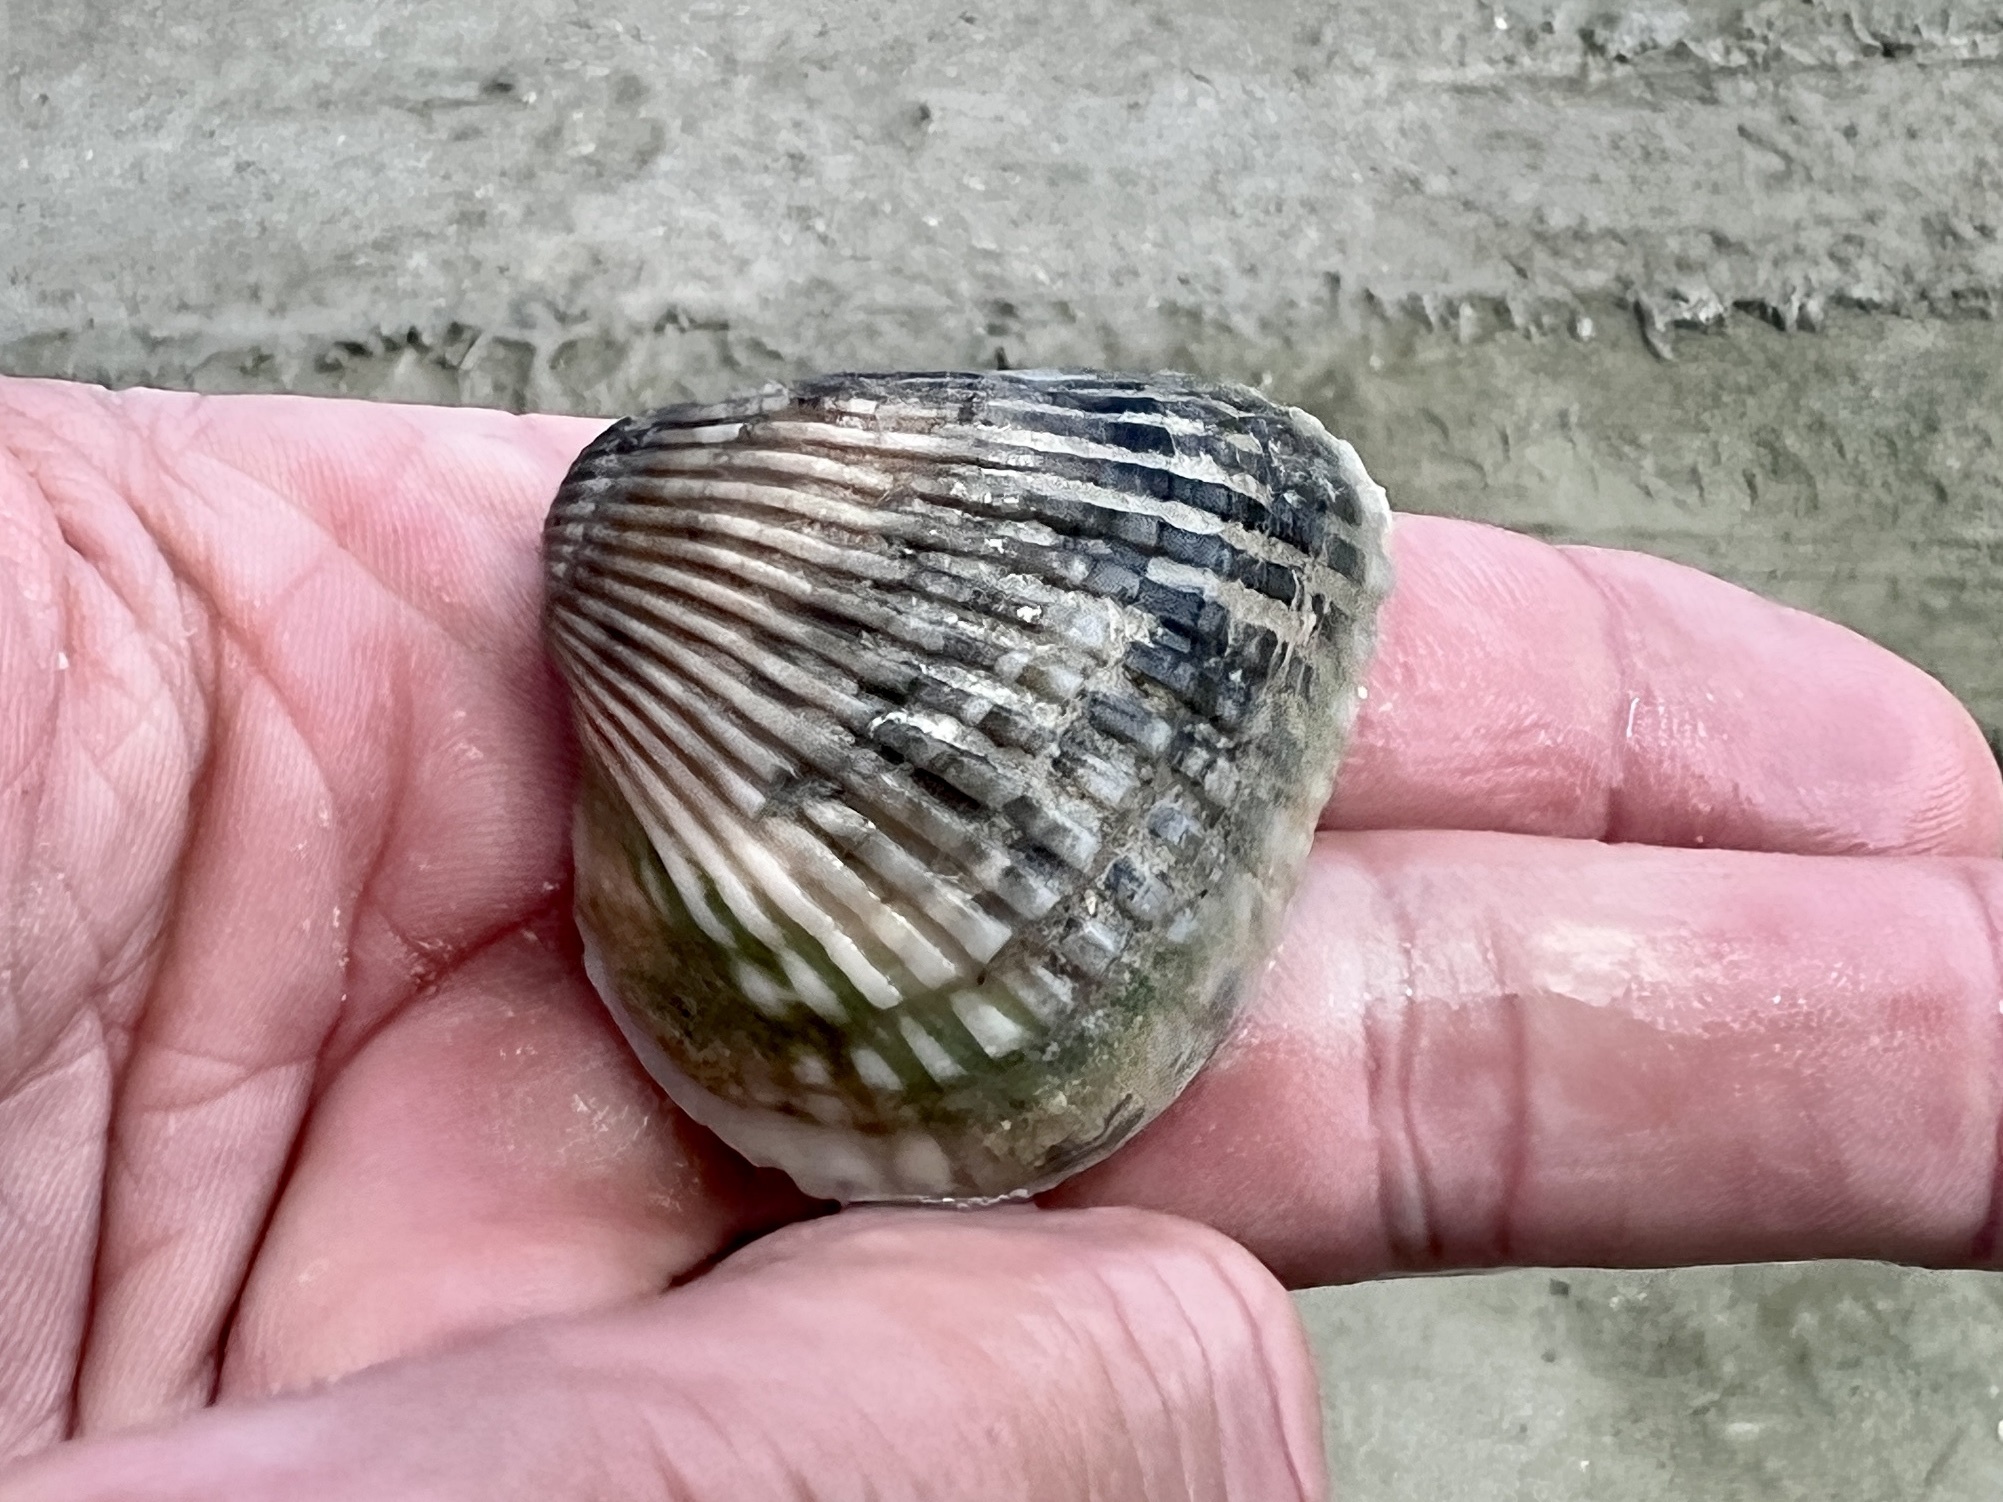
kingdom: Animalia
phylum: Mollusca
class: Bivalvia
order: Arcida
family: Noetiidae
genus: Noetia
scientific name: Noetia ponderosa
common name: Ponderous ark
